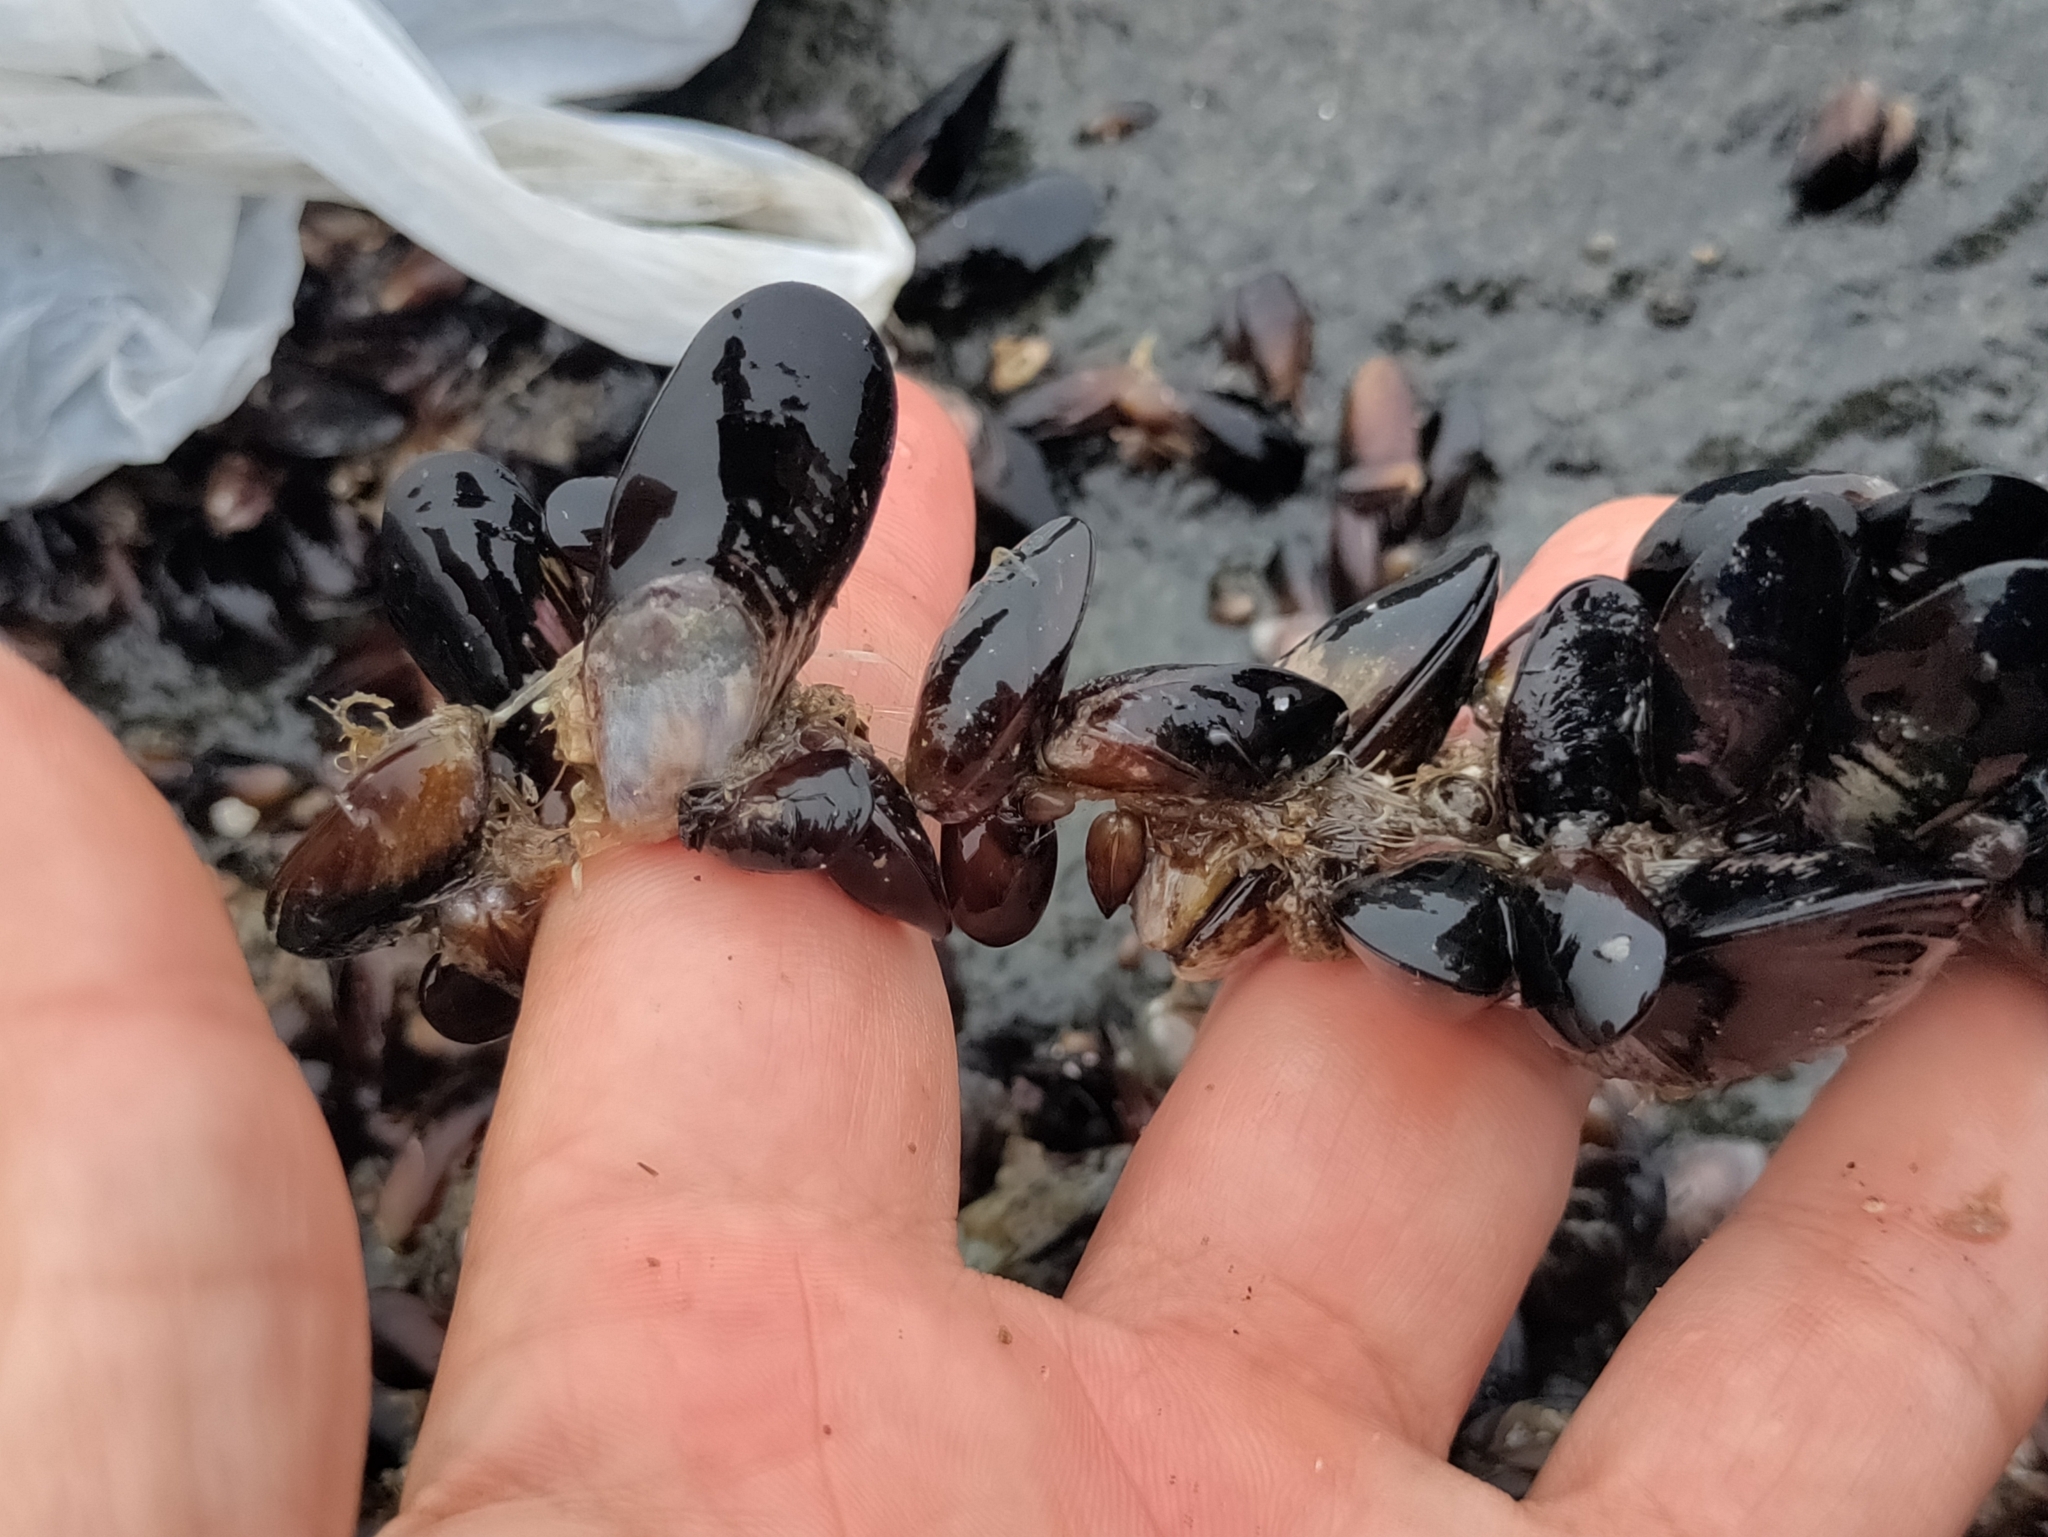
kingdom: Animalia
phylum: Mollusca
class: Bivalvia
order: Mytilida
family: Mytilidae
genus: Semimytilus
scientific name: Semimytilus patagonicus
